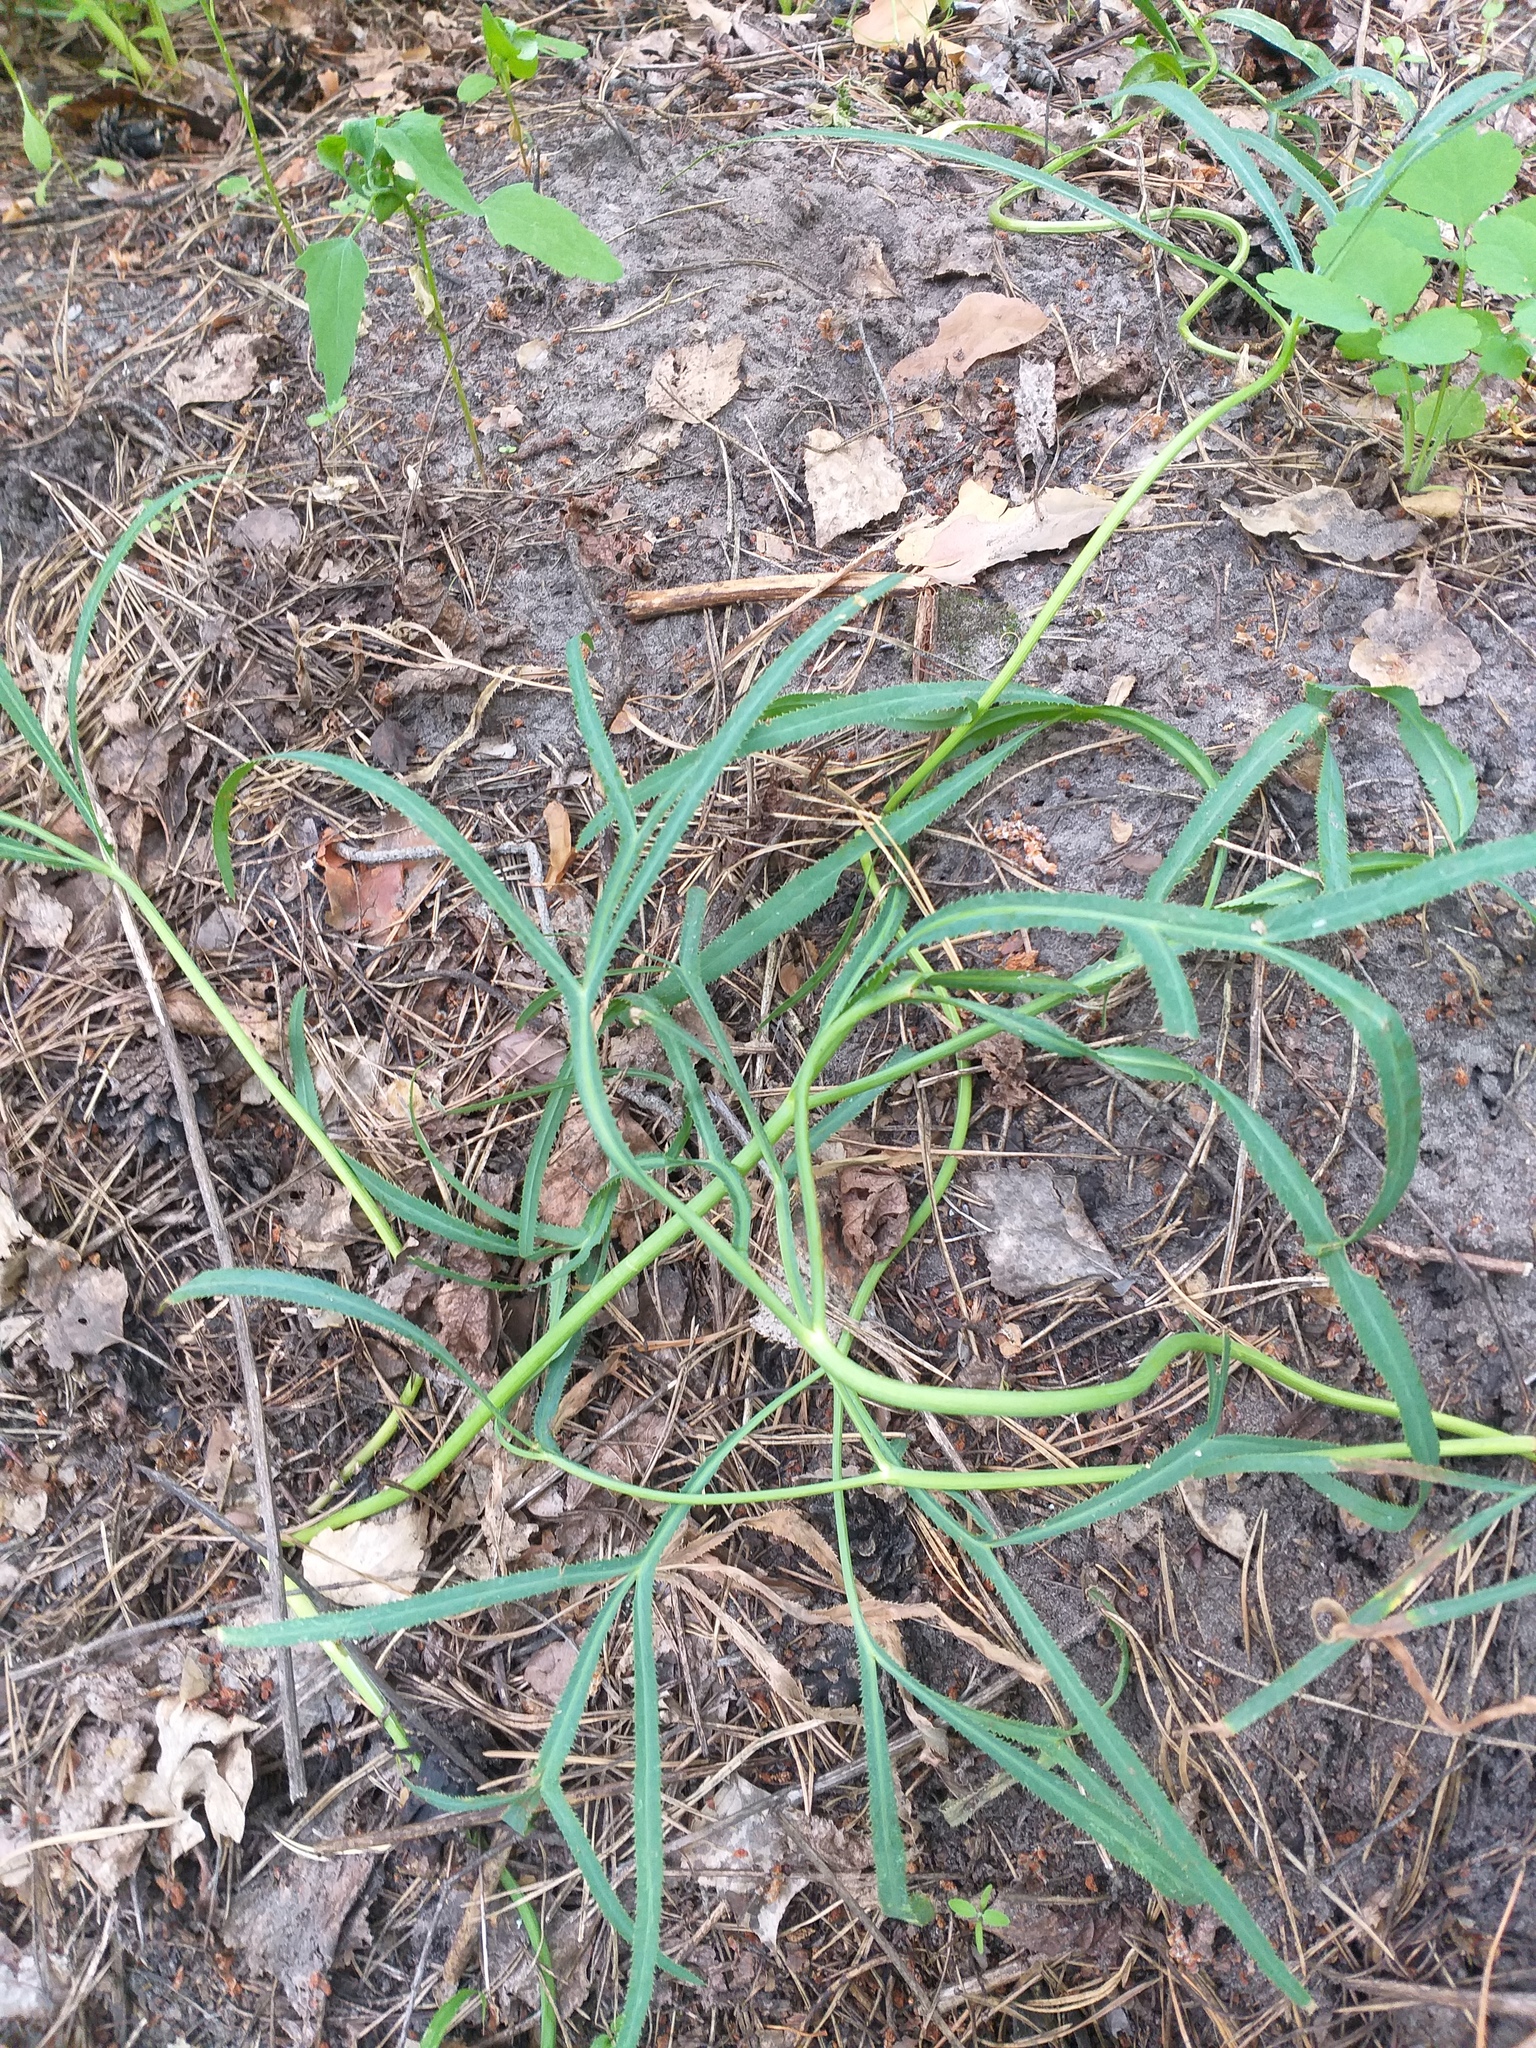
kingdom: Plantae
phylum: Tracheophyta
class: Magnoliopsida
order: Apiales
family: Apiaceae
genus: Falcaria
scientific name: Falcaria vulgaris
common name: Longleaf
